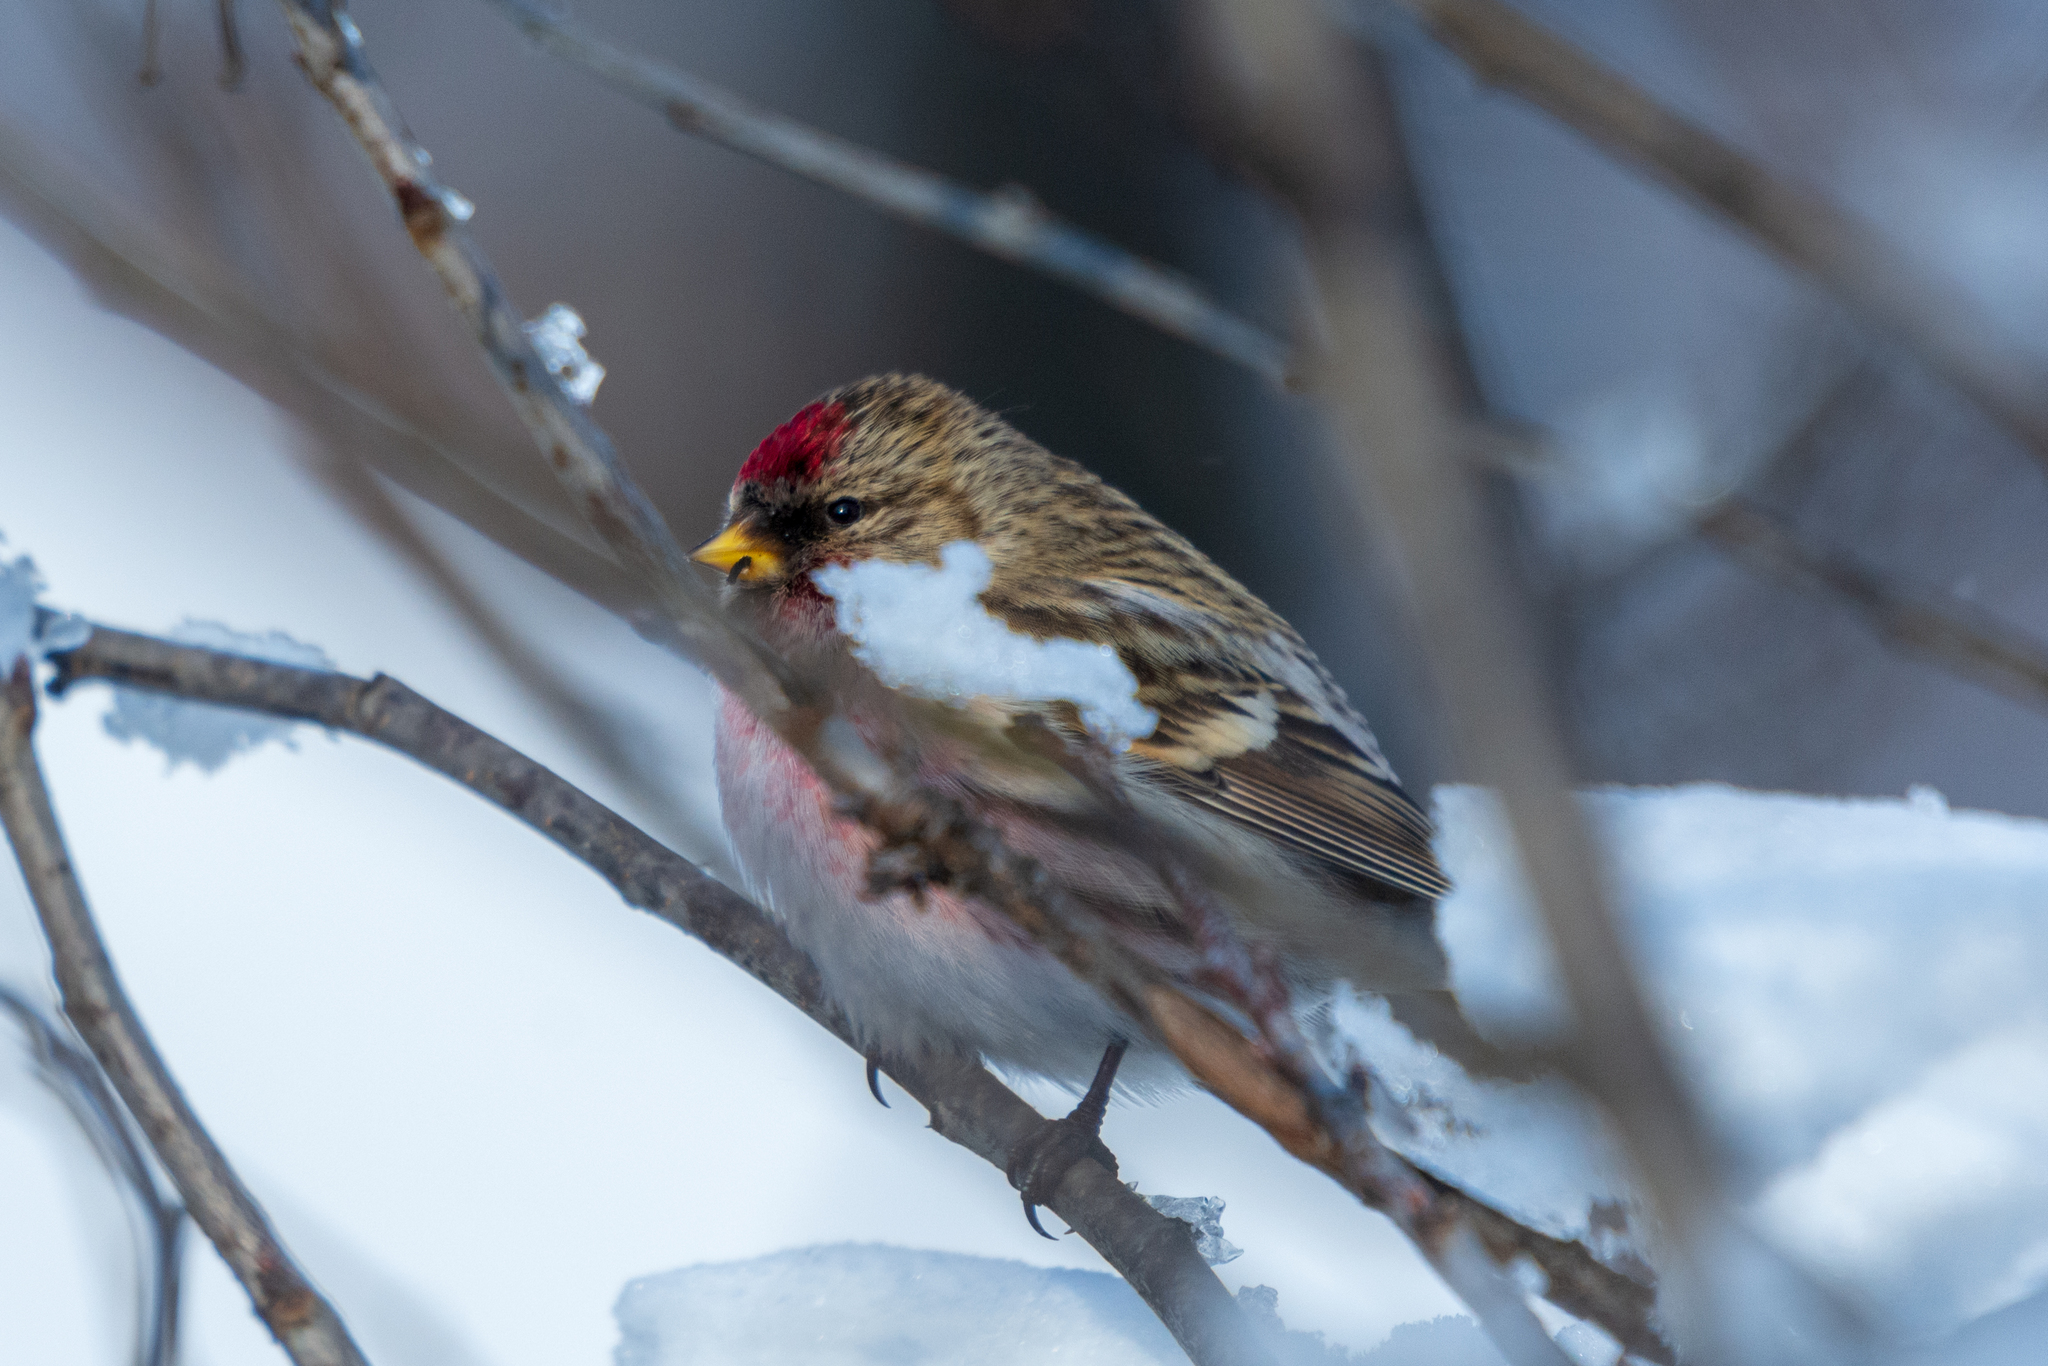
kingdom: Animalia
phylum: Chordata
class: Aves
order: Passeriformes
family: Fringillidae
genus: Acanthis
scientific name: Acanthis flammea
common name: Common redpoll
